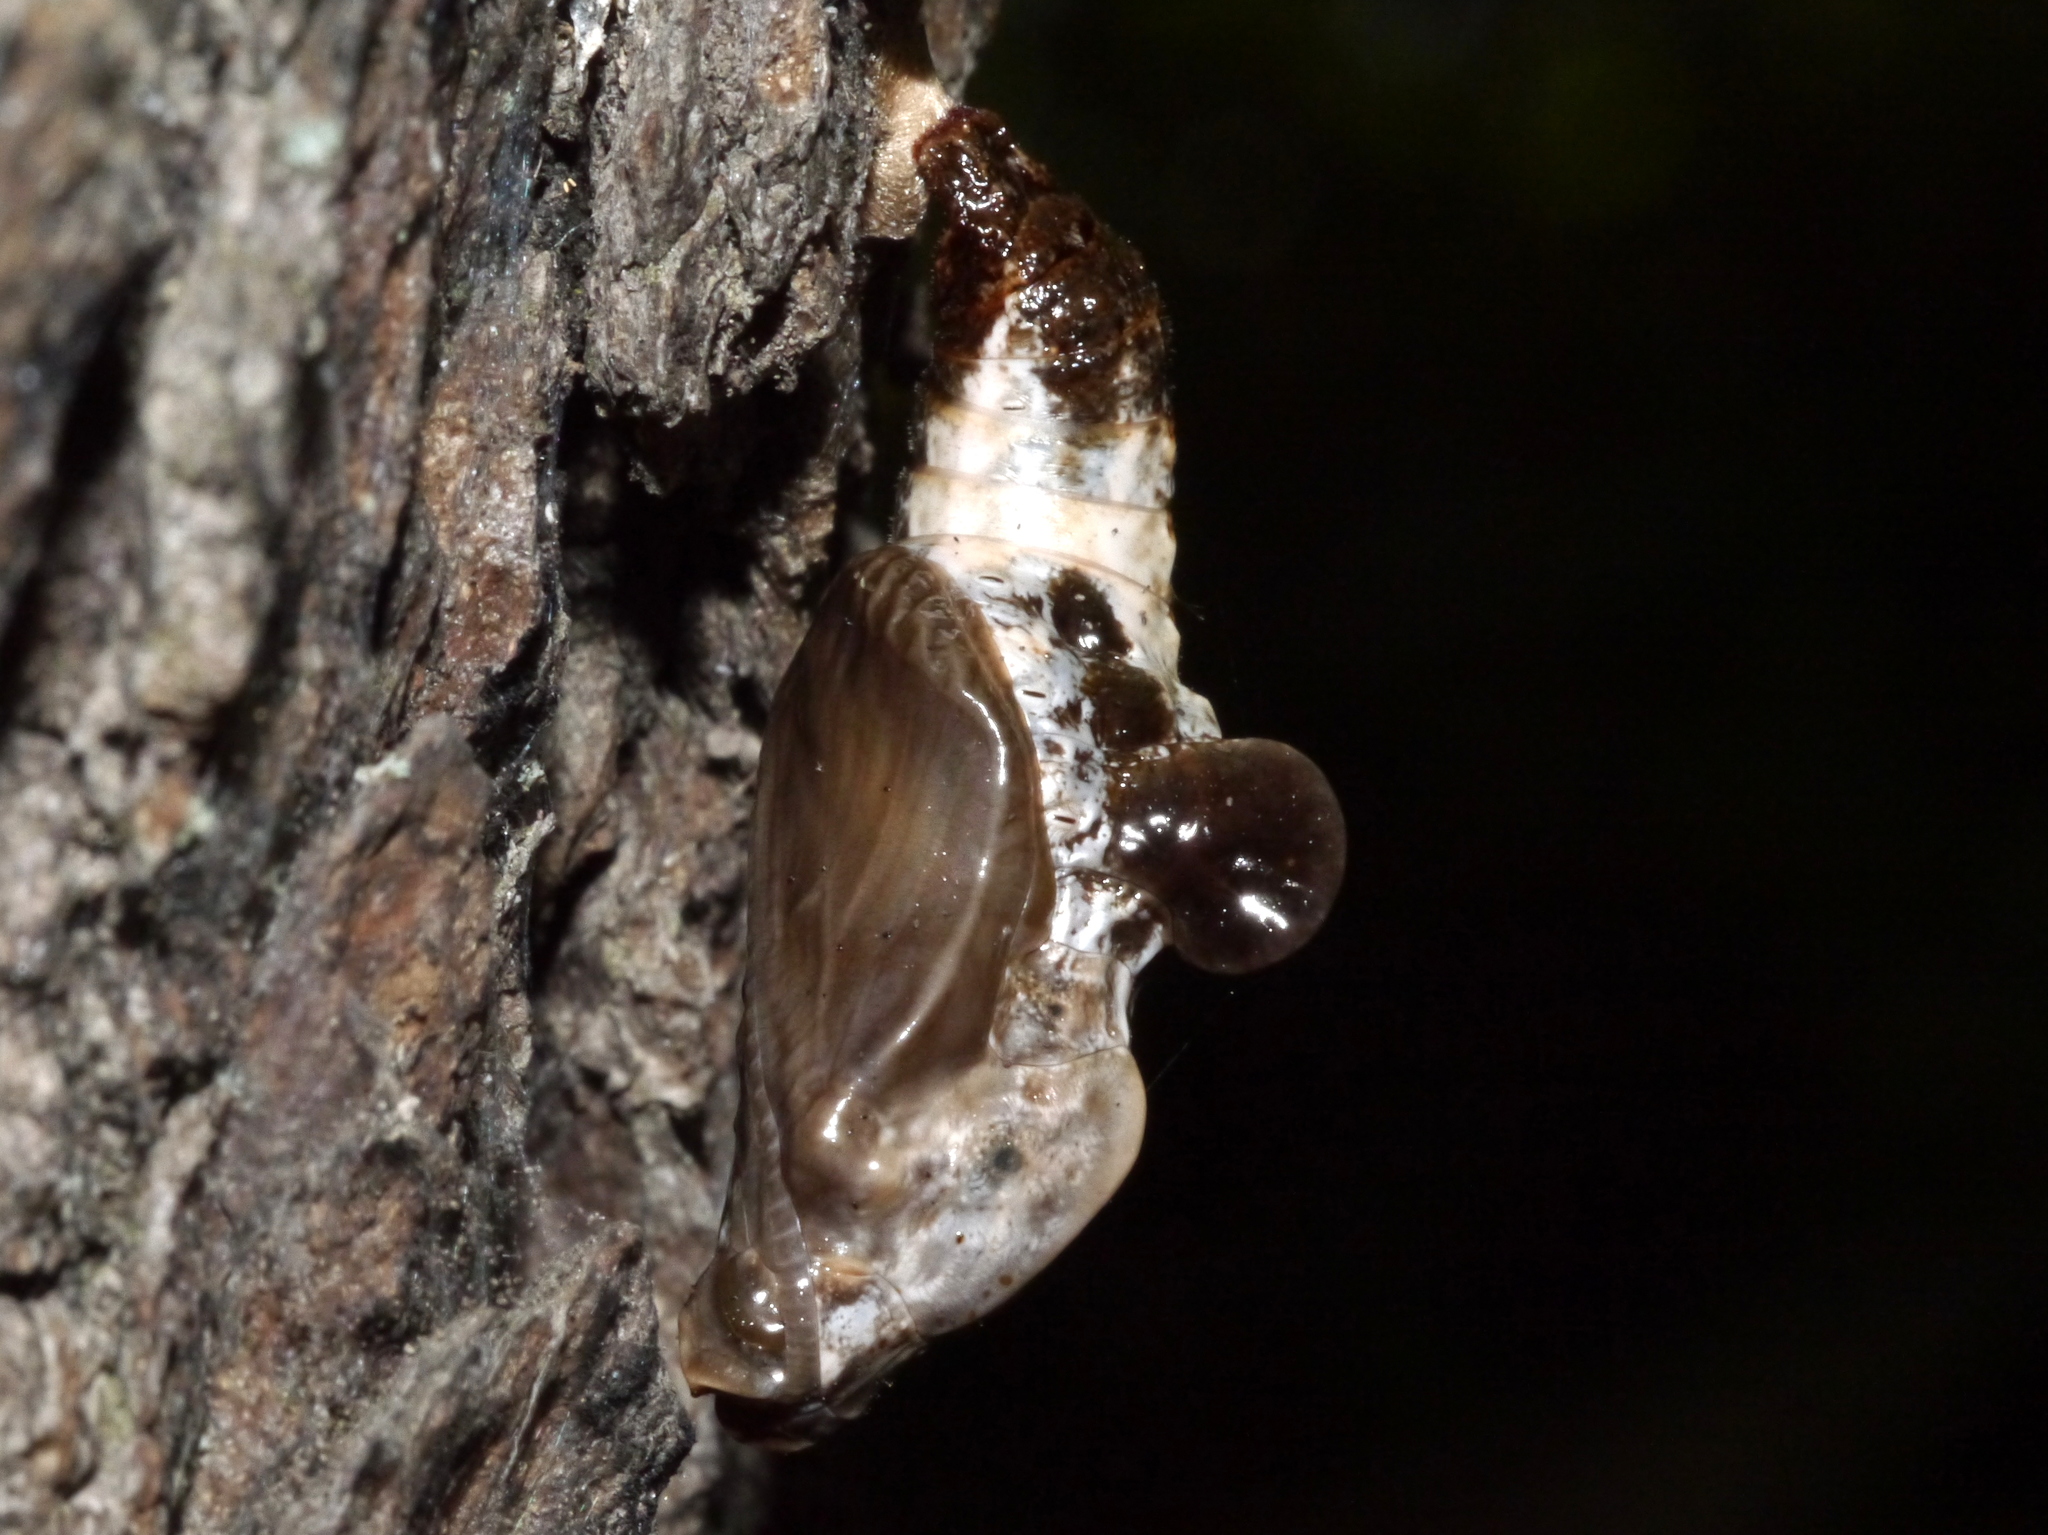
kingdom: Animalia
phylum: Arthropoda
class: Insecta
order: Lepidoptera
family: Nymphalidae
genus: Limenitis
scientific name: Limenitis arthemis
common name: Red-spotted admiral
